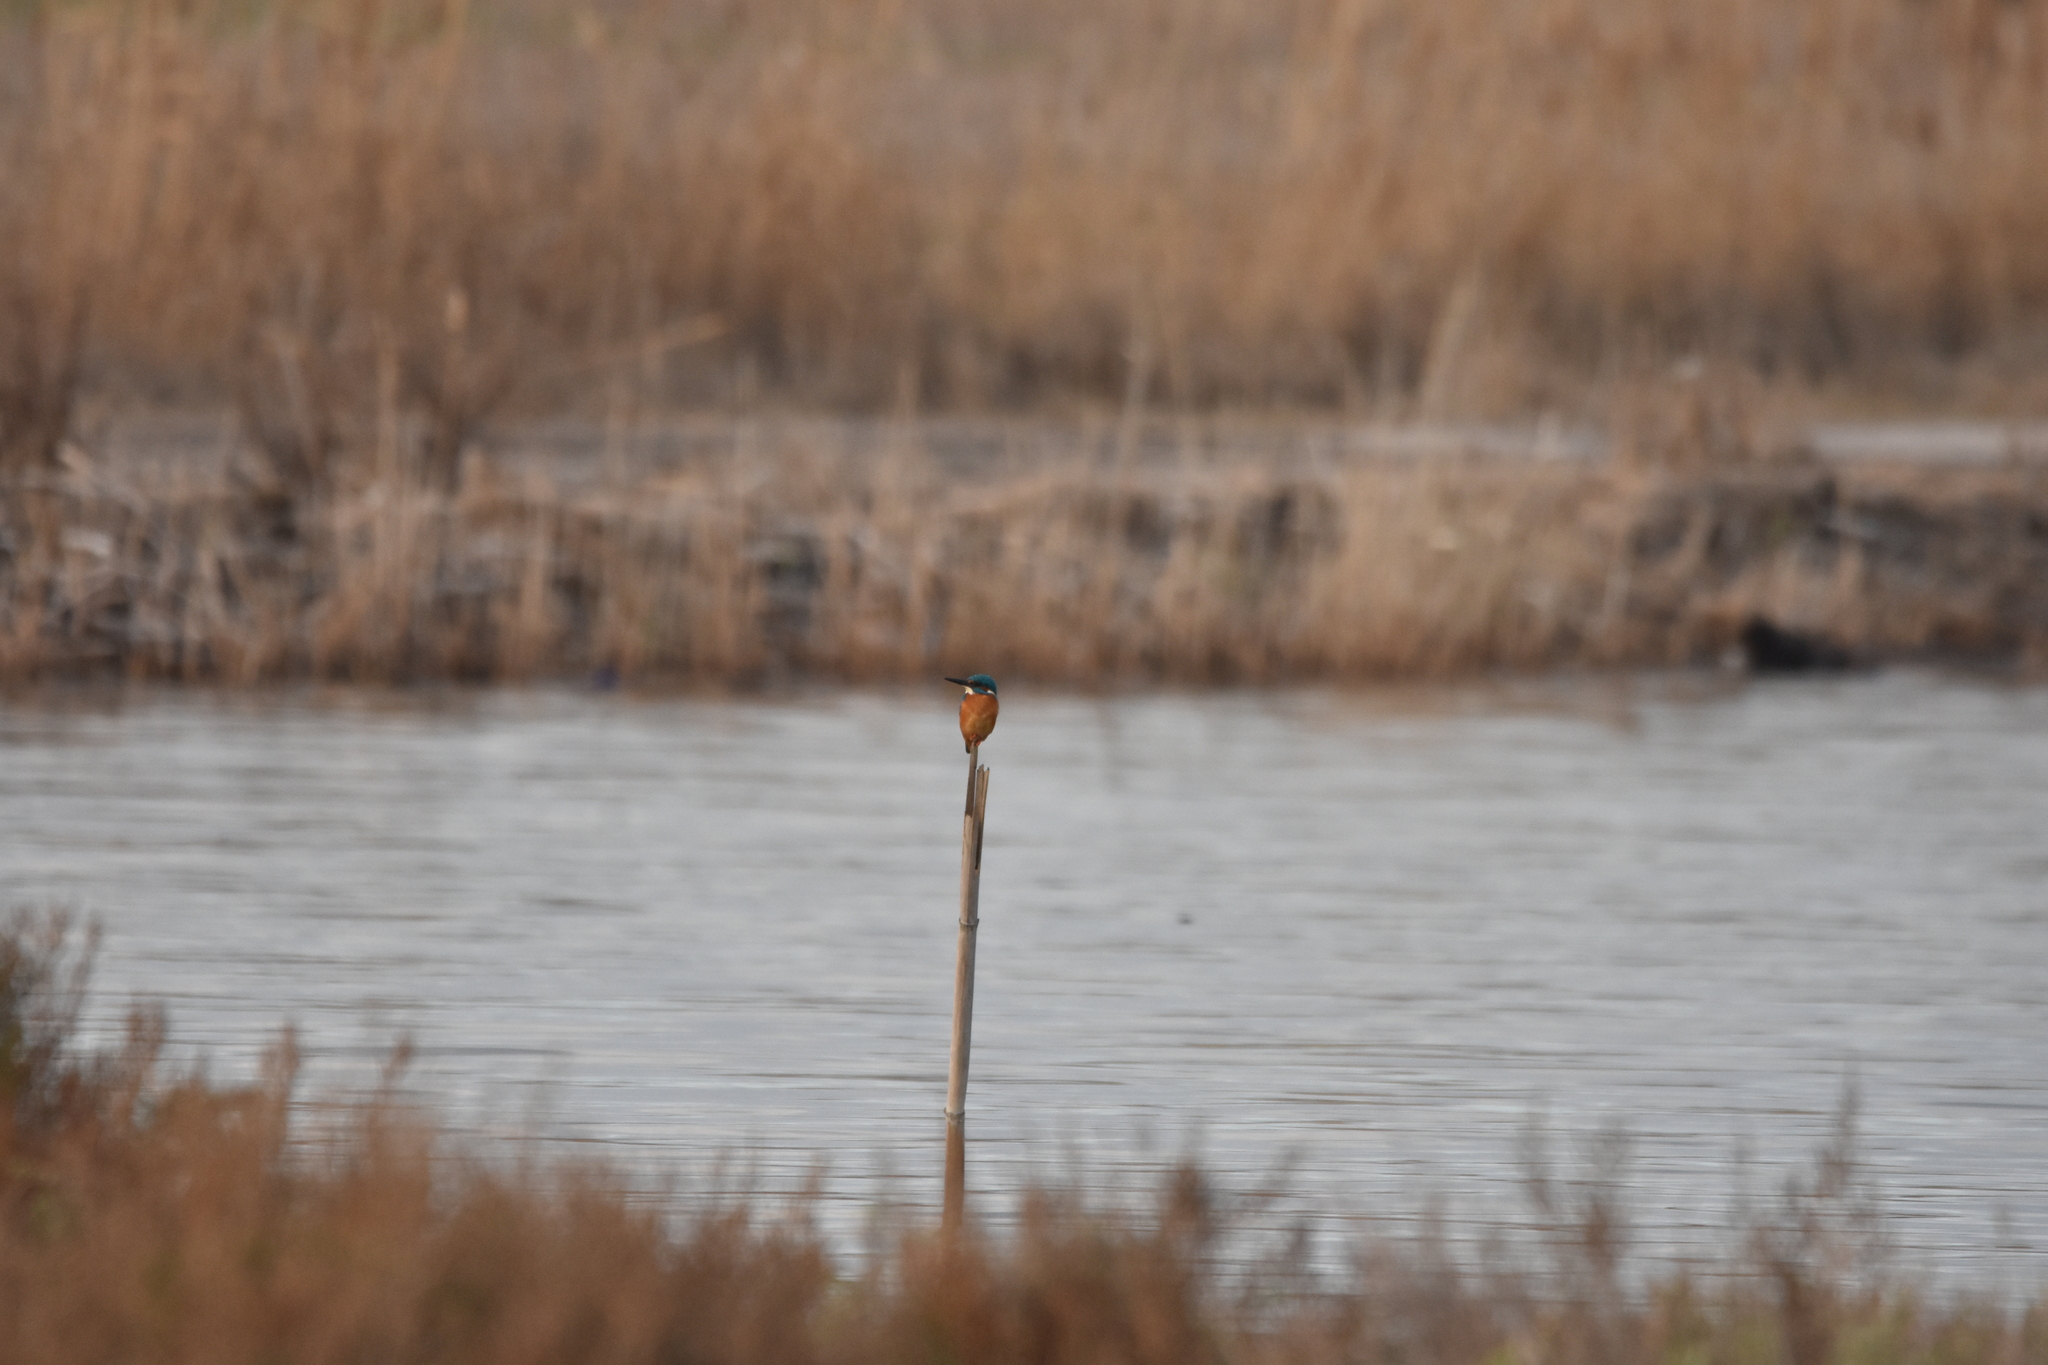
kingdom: Animalia
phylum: Chordata
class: Aves
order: Coraciiformes
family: Alcedinidae
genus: Alcedo
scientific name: Alcedo atthis
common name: Common kingfisher
